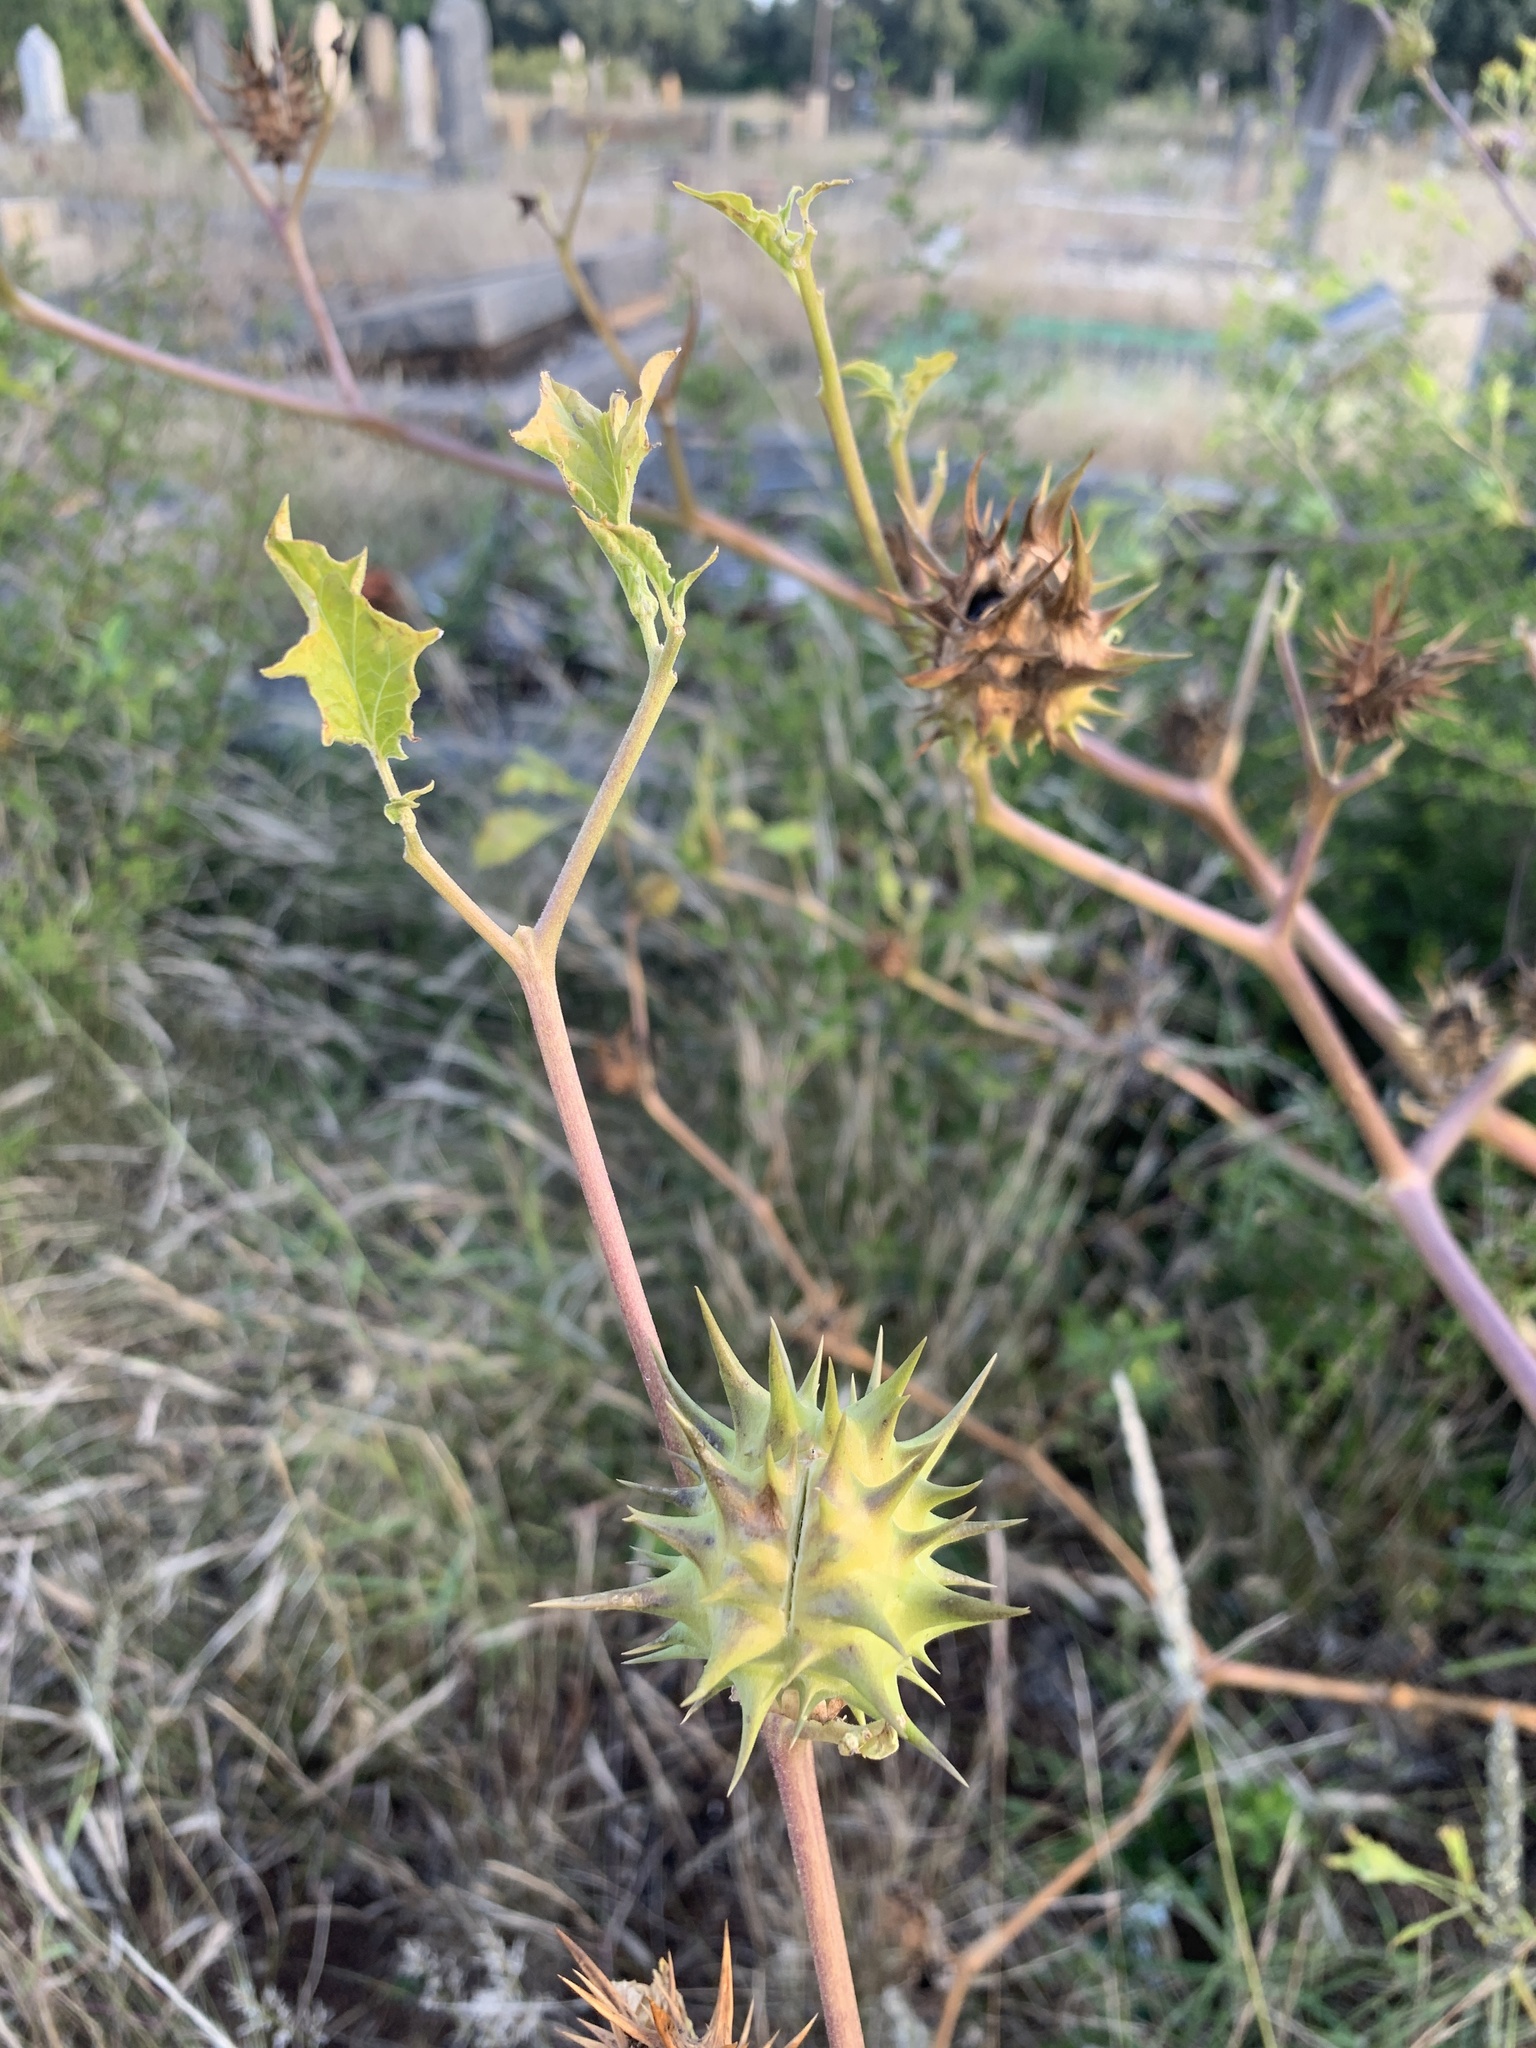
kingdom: Plantae
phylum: Tracheophyta
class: Magnoliopsida
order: Solanales
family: Solanaceae
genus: Datura
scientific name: Datura ferox
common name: Angel's-trumpets
